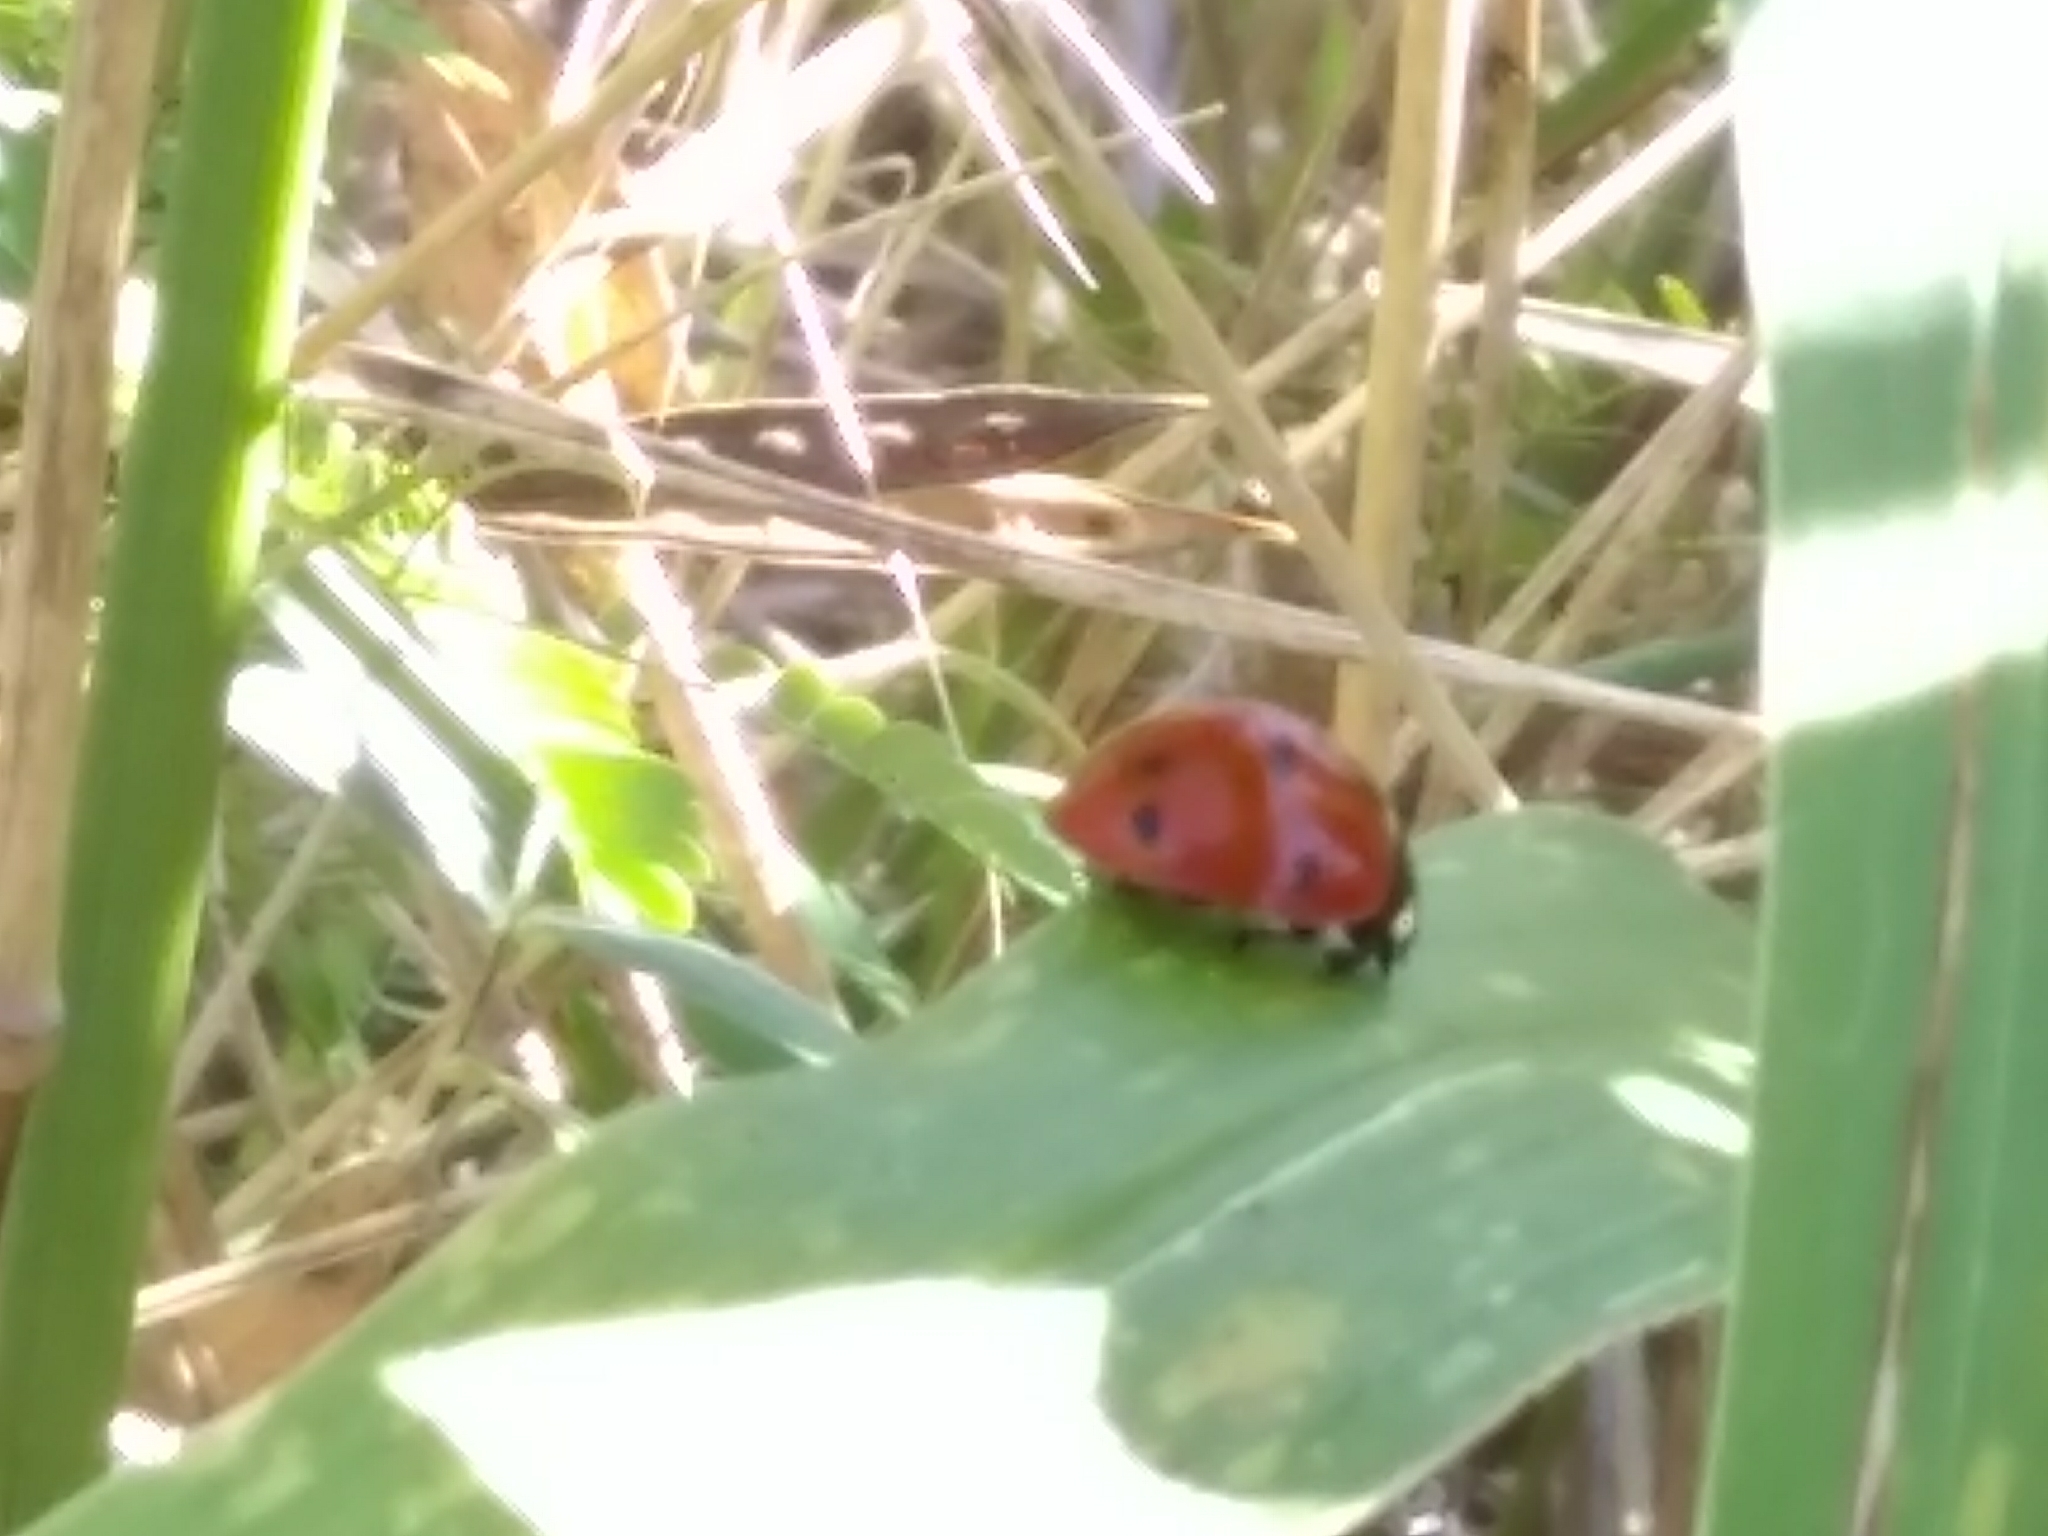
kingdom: Animalia
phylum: Arthropoda
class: Insecta
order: Coleoptera
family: Coccinellidae
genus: Coccinella
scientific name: Coccinella septempunctata
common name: Sevenspotted lady beetle
